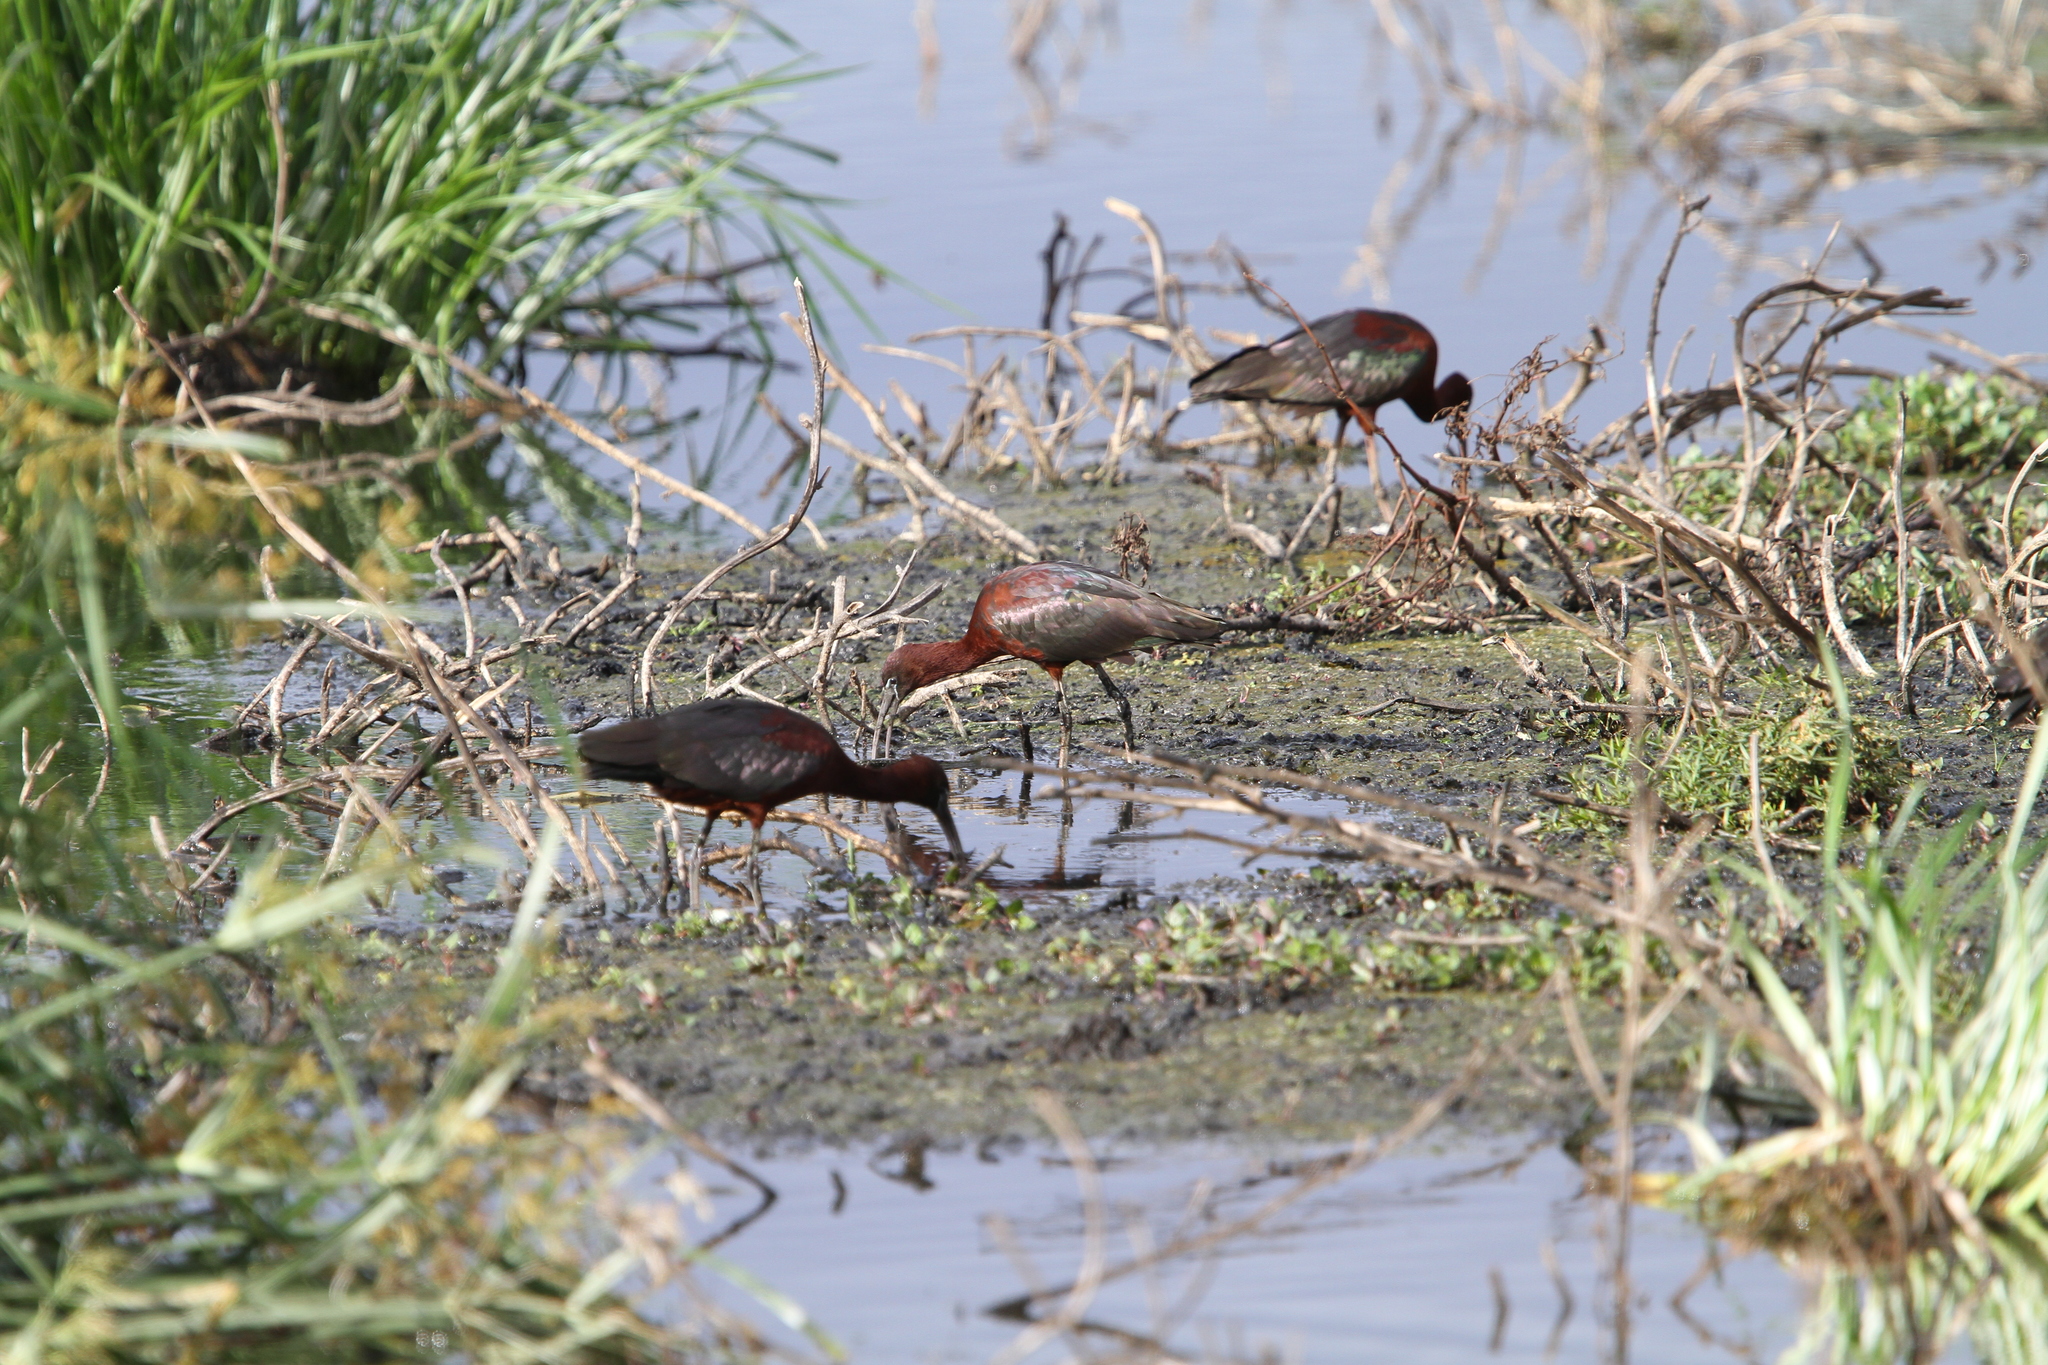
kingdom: Animalia
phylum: Chordata
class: Aves
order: Pelecaniformes
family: Threskiornithidae
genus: Plegadis
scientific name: Plegadis falcinellus
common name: Glossy ibis
